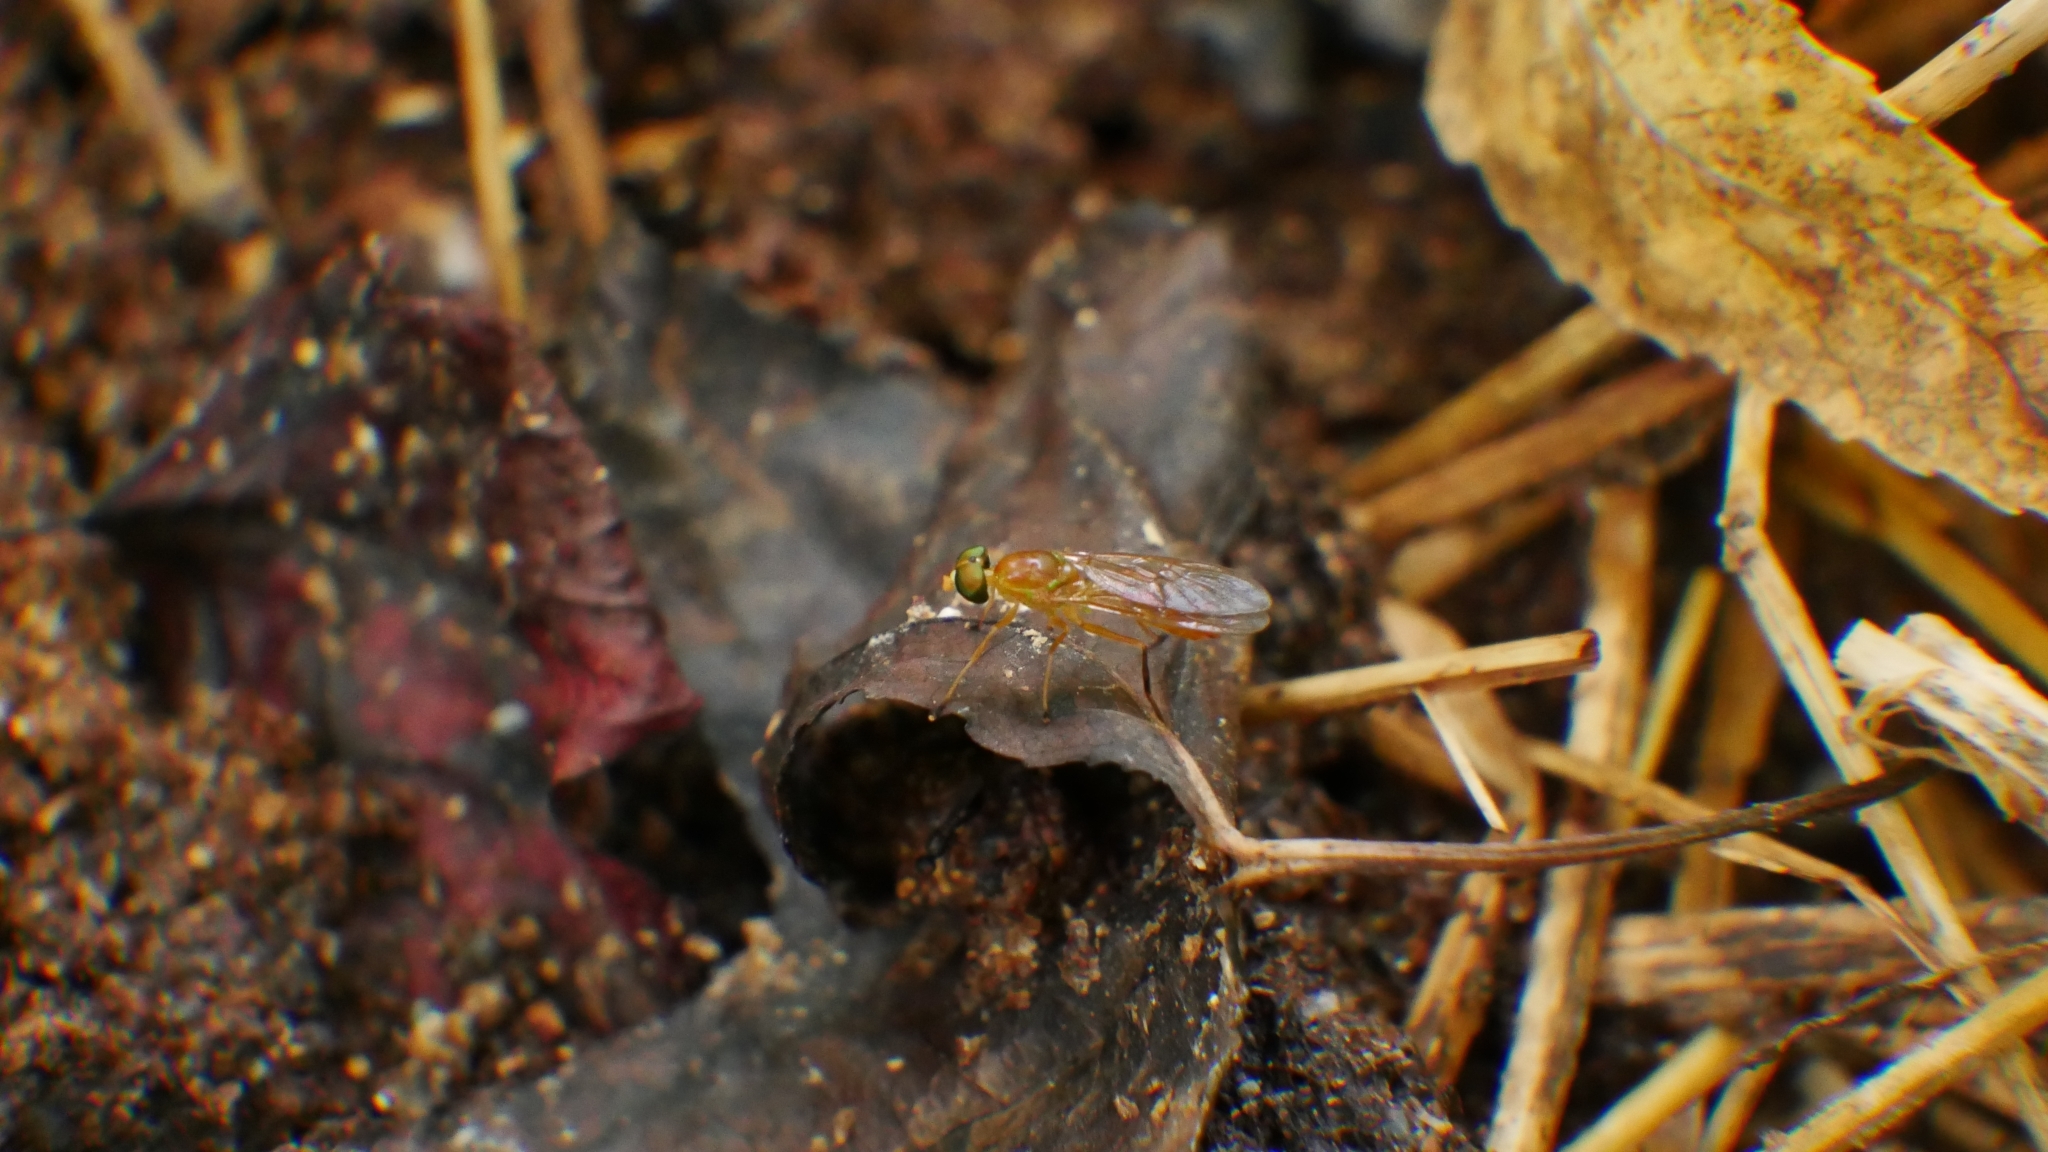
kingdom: Animalia
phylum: Arthropoda
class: Insecta
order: Diptera
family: Stratiomyidae
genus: Ptecticus
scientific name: Ptecticus trivittatus
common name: Compost fly
